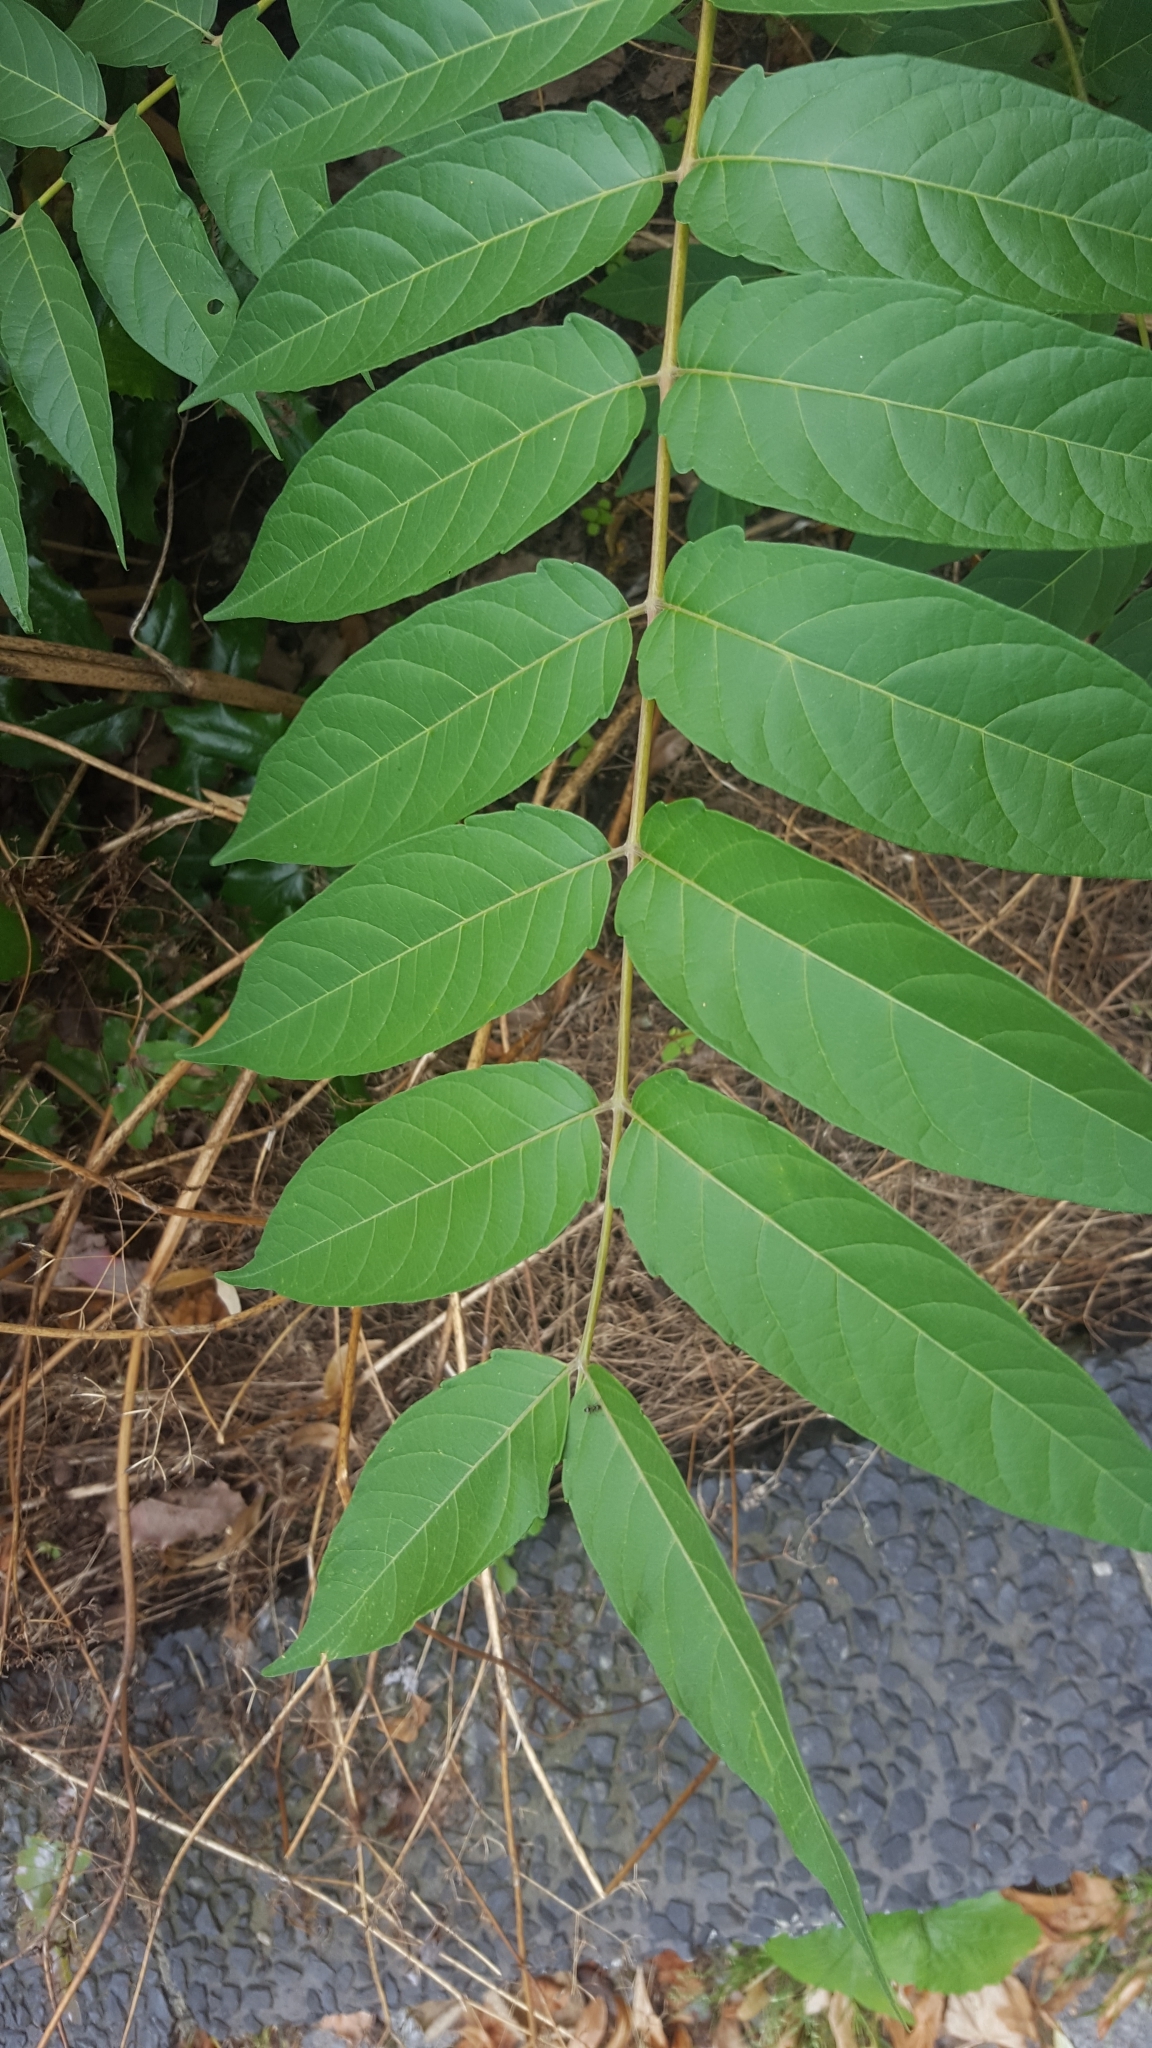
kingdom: Plantae
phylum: Tracheophyta
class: Magnoliopsida
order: Sapindales
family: Simaroubaceae
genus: Ailanthus
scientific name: Ailanthus altissima
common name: Tree-of-heaven
